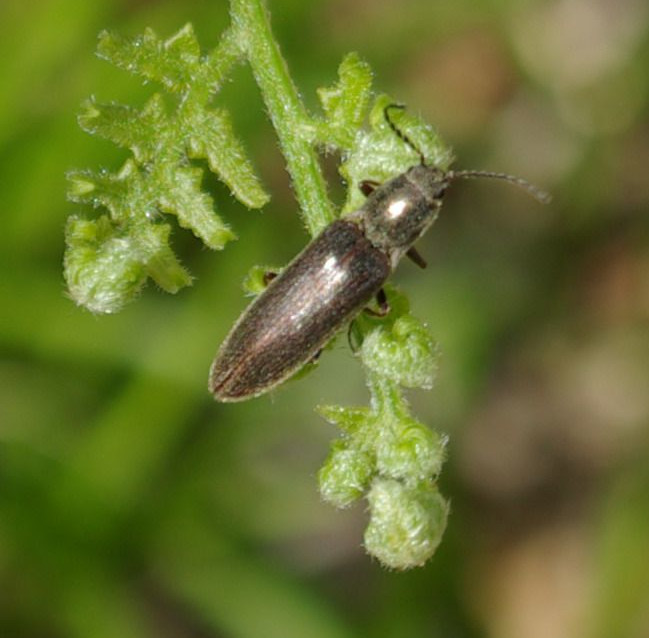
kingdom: Animalia
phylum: Arthropoda
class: Insecta
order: Coleoptera
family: Elateridae
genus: Sylvanelater
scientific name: Sylvanelater cylindriformis
